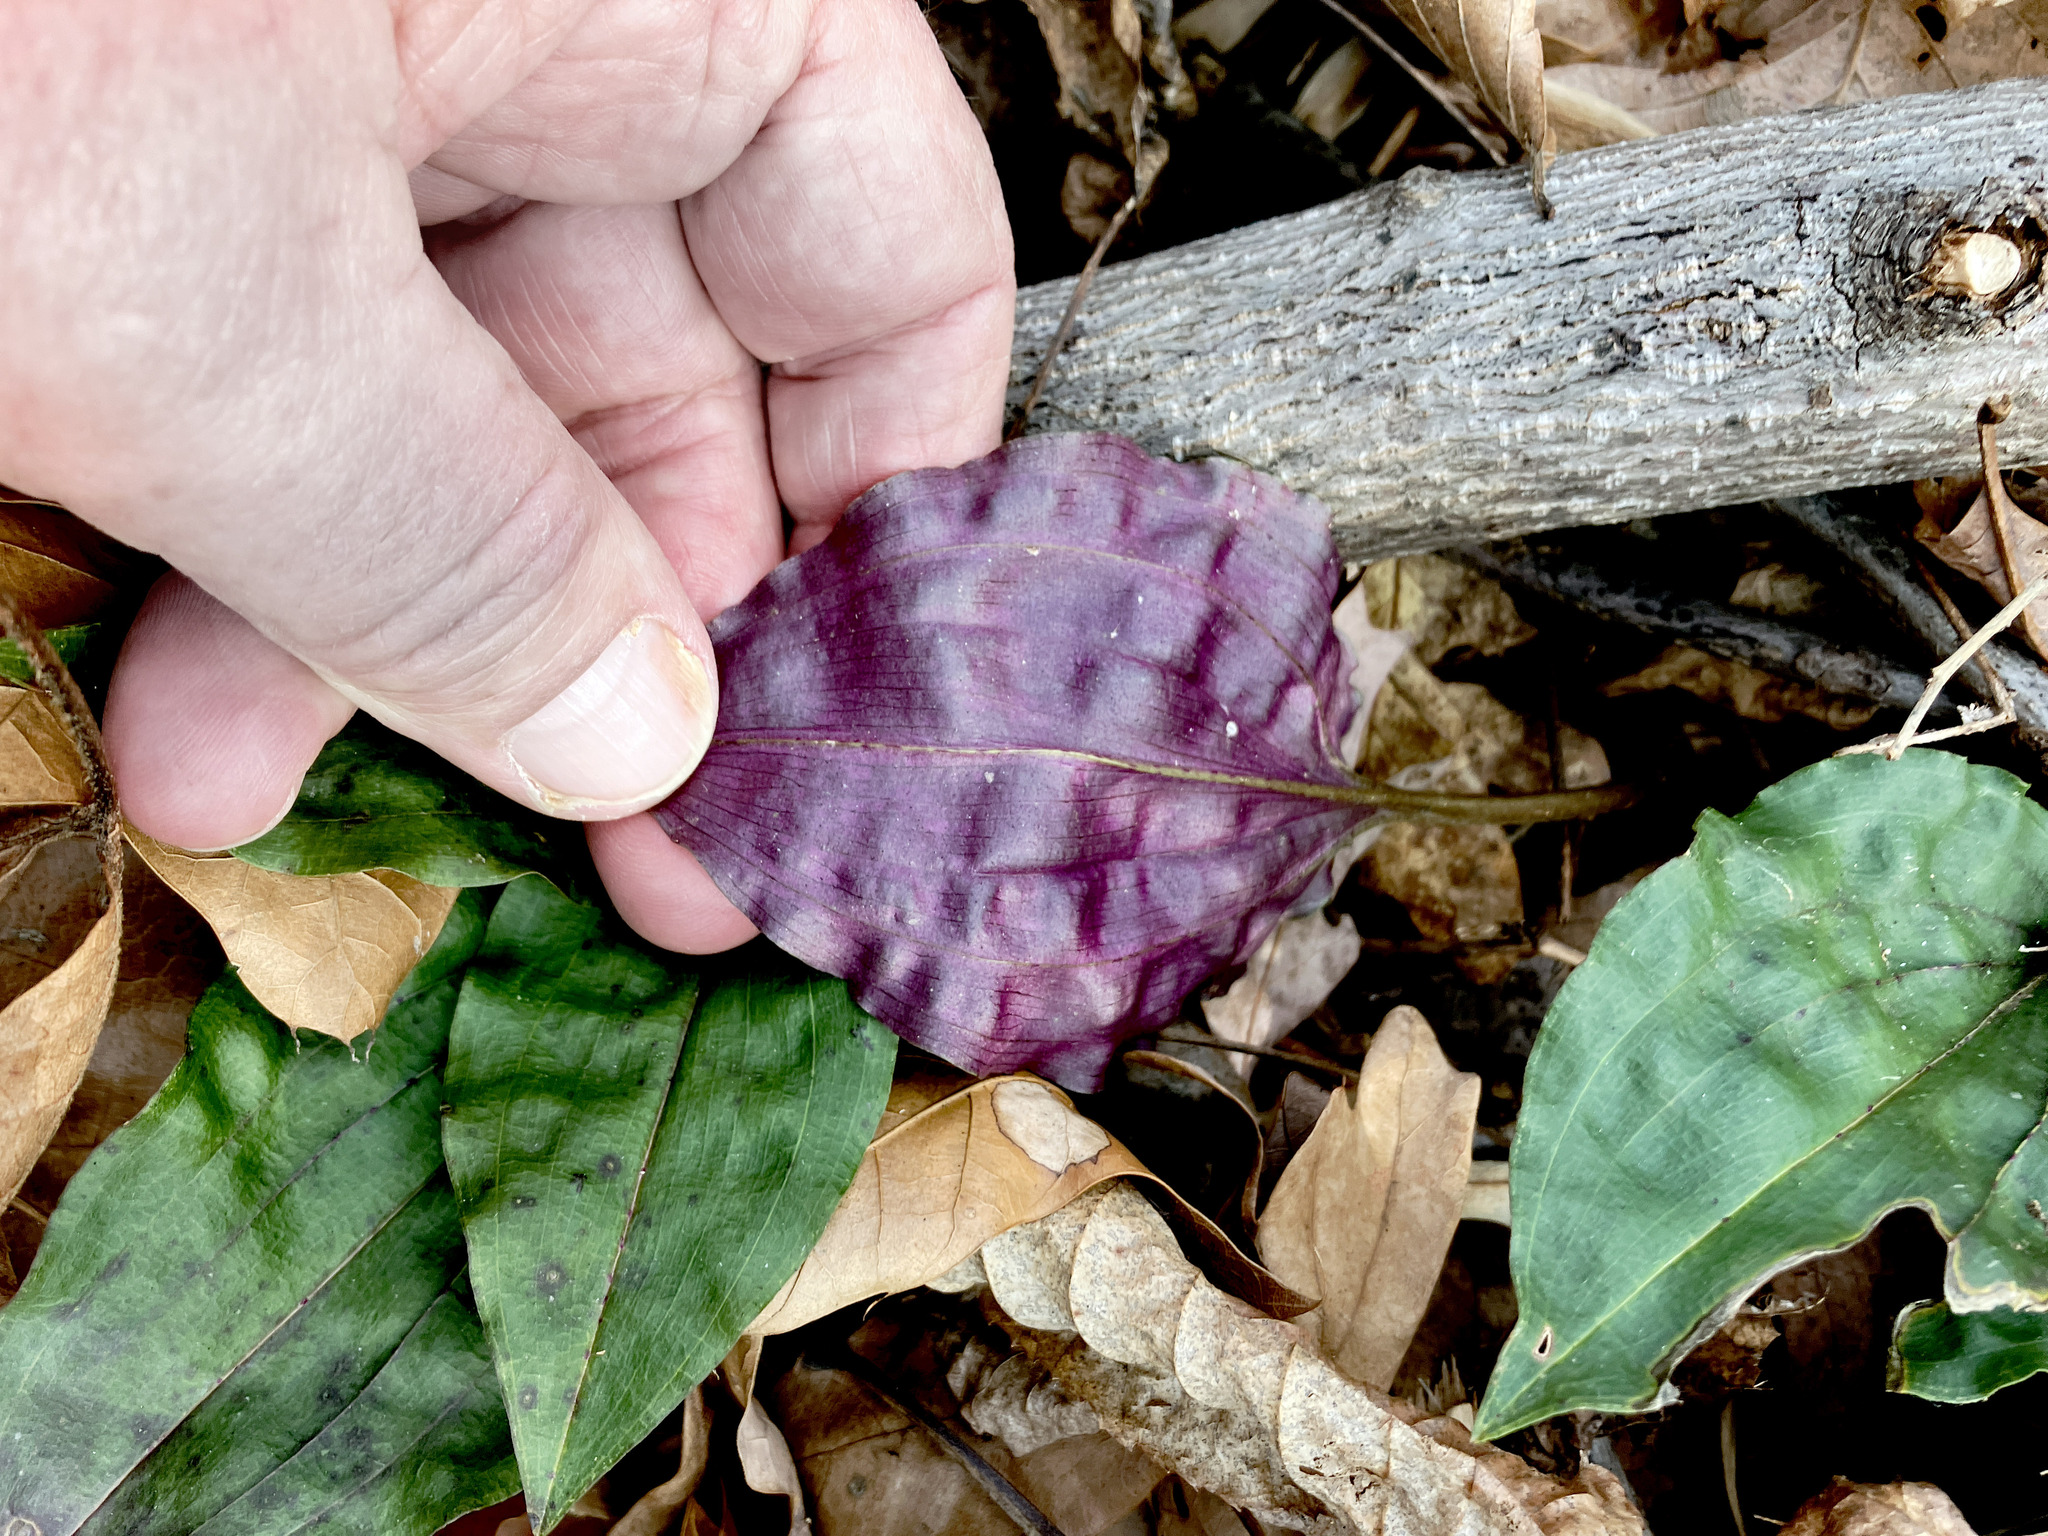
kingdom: Plantae
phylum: Tracheophyta
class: Liliopsida
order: Asparagales
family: Orchidaceae
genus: Tipularia
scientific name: Tipularia discolor
